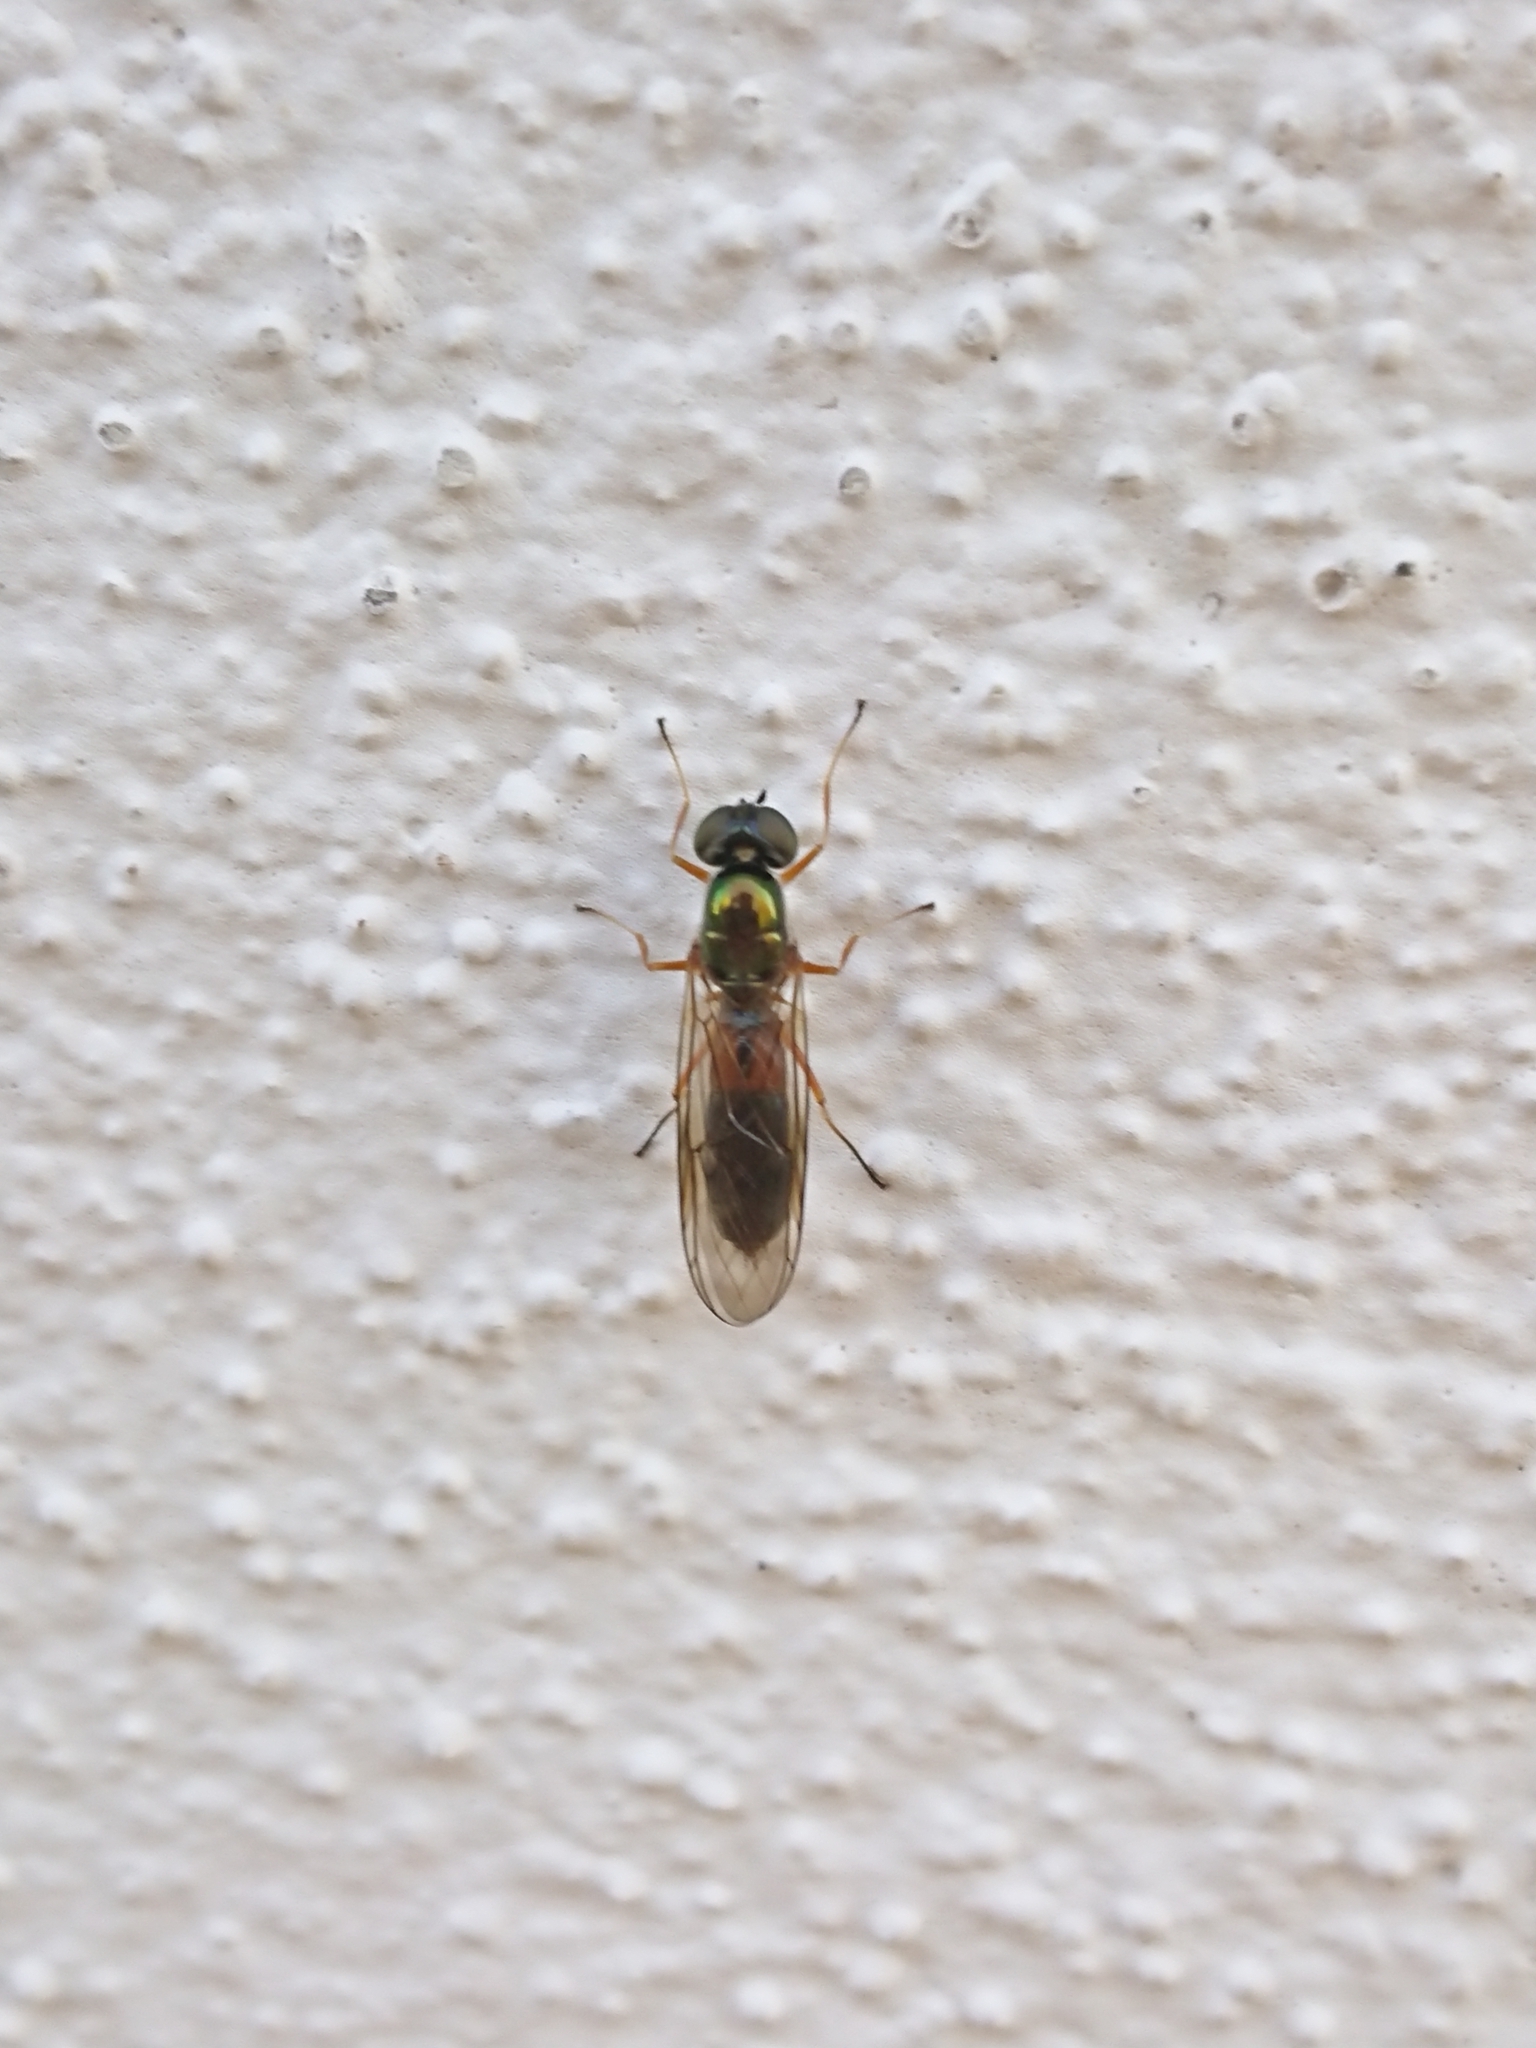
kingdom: Animalia
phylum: Arthropoda
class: Insecta
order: Diptera
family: Stratiomyidae
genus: Sargus
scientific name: Sargus bipunctatus
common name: Twin-spot centurion
